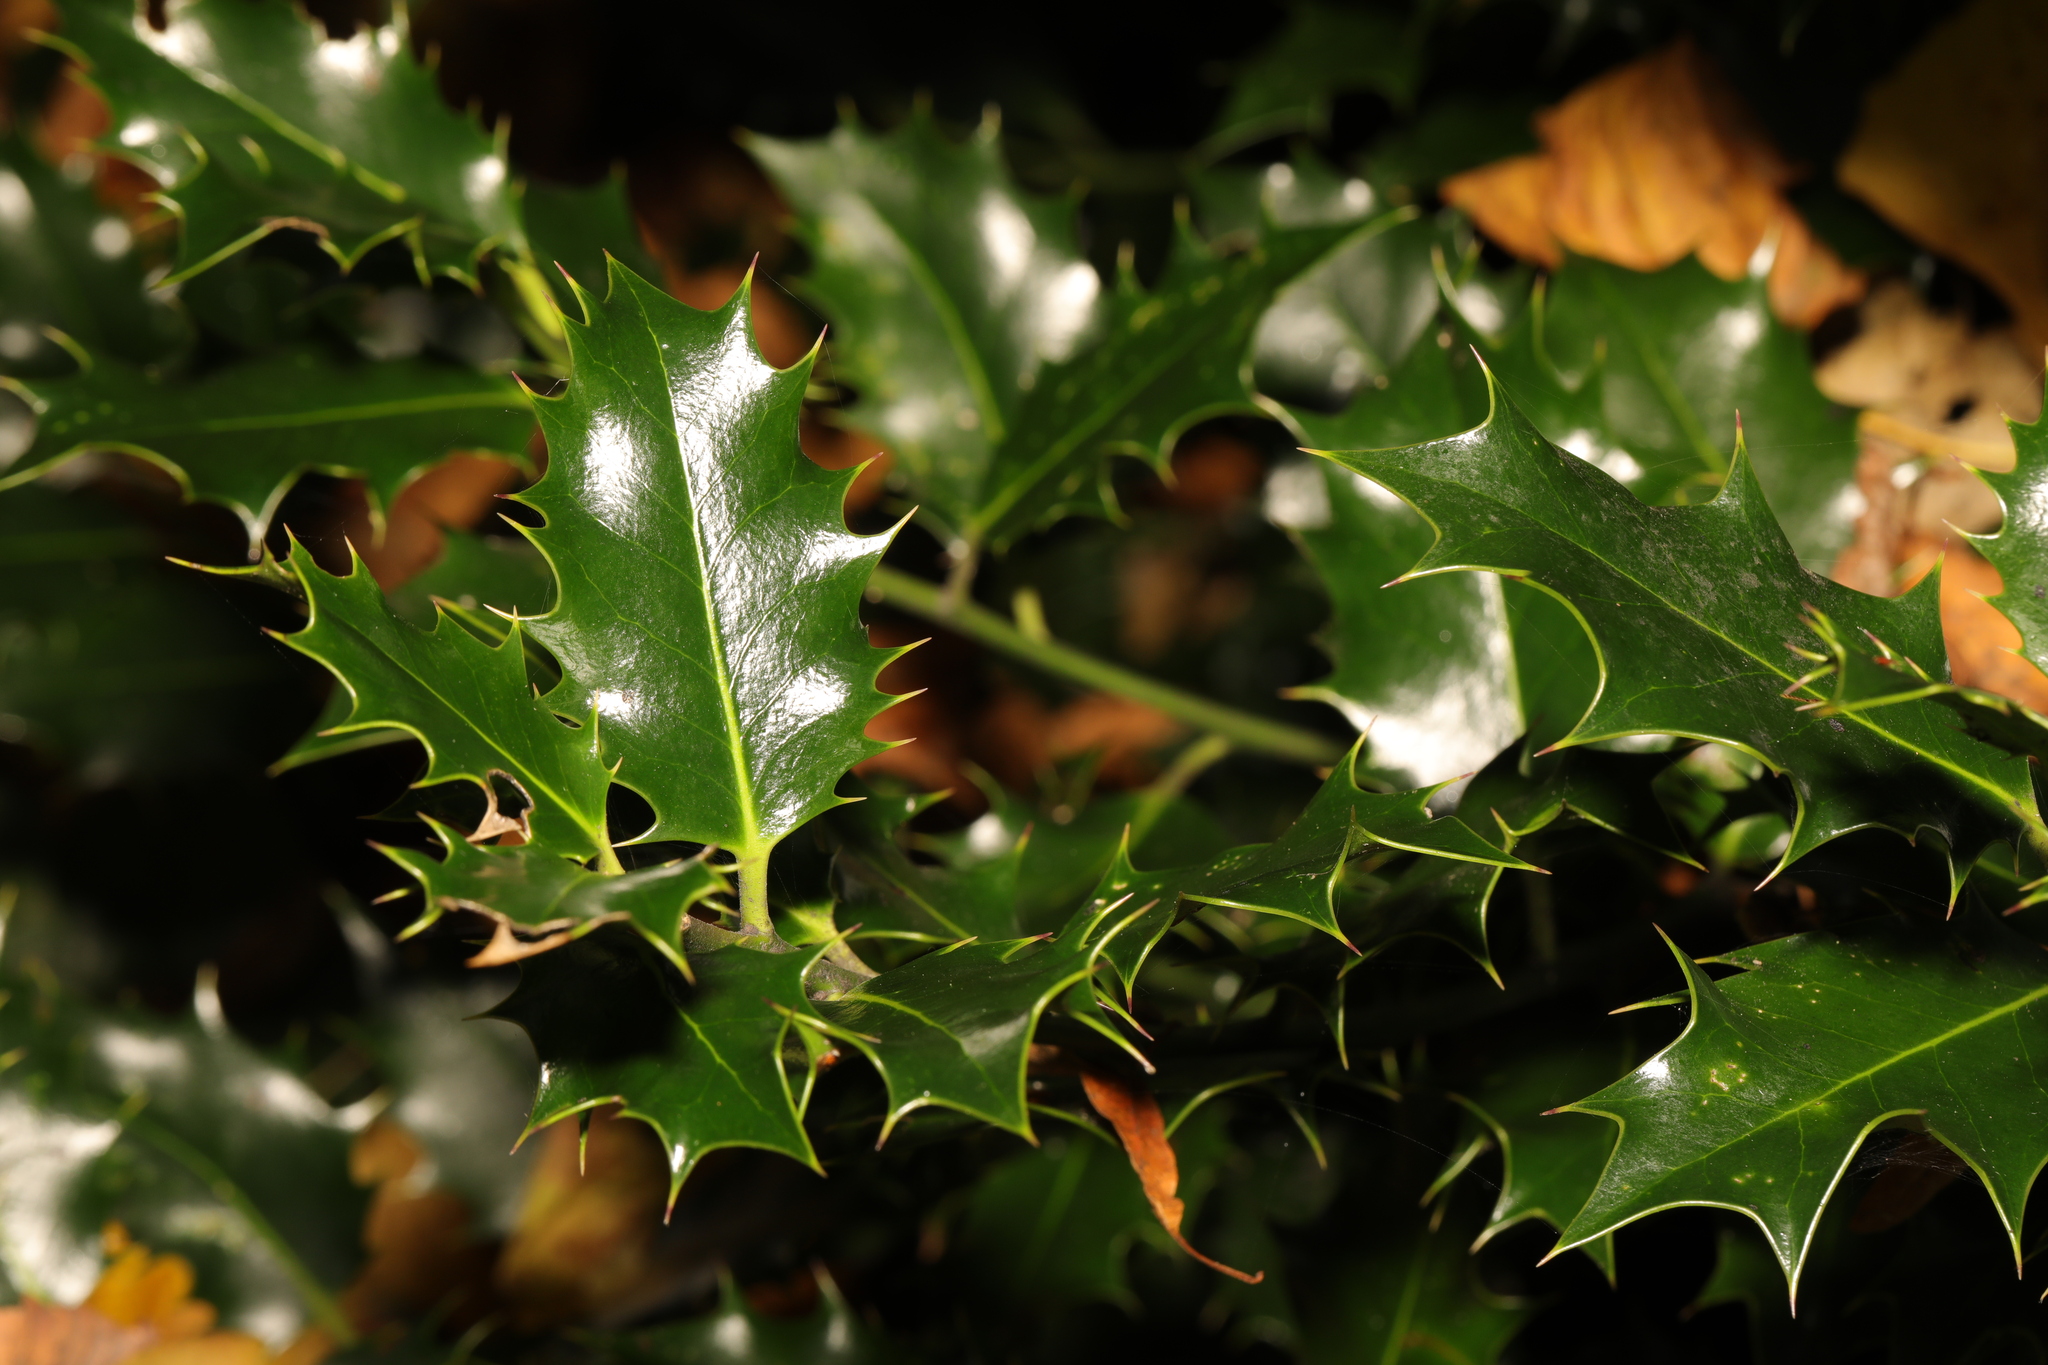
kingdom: Plantae
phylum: Tracheophyta
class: Magnoliopsida
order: Aquifoliales
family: Aquifoliaceae
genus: Ilex
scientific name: Ilex aquifolium
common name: English holly
